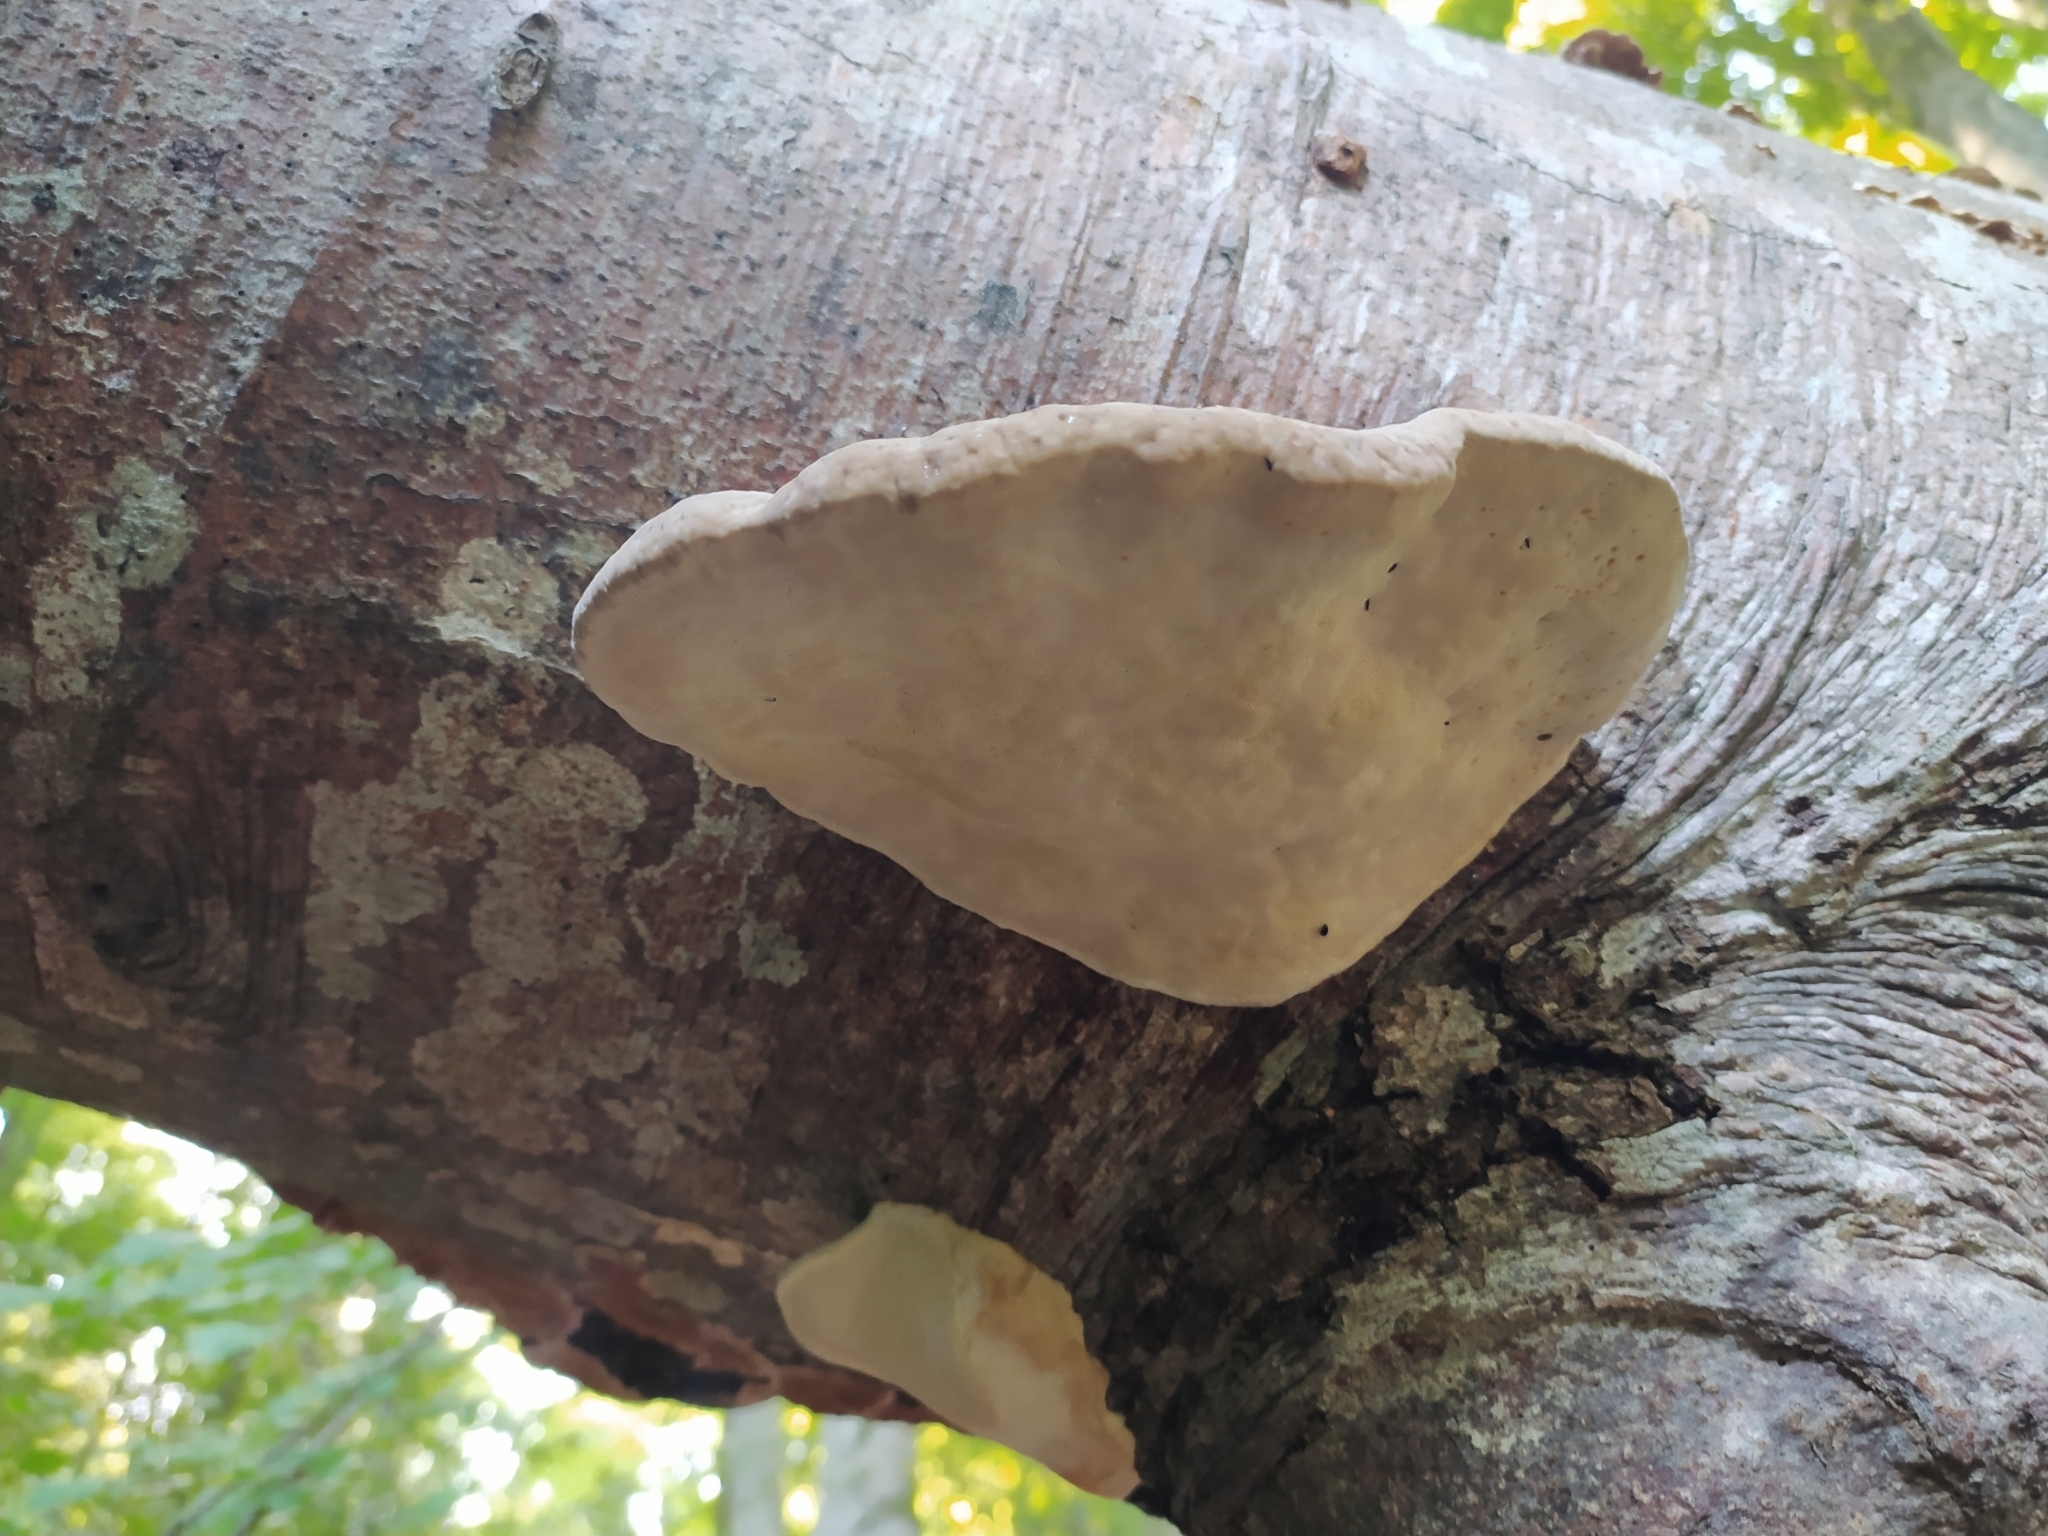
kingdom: Fungi
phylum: Basidiomycota
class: Agaricomycetes
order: Polyporales
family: Fomitopsidaceae
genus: Fomitopsis
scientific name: Fomitopsis pinicola
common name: Red-belted bracket
